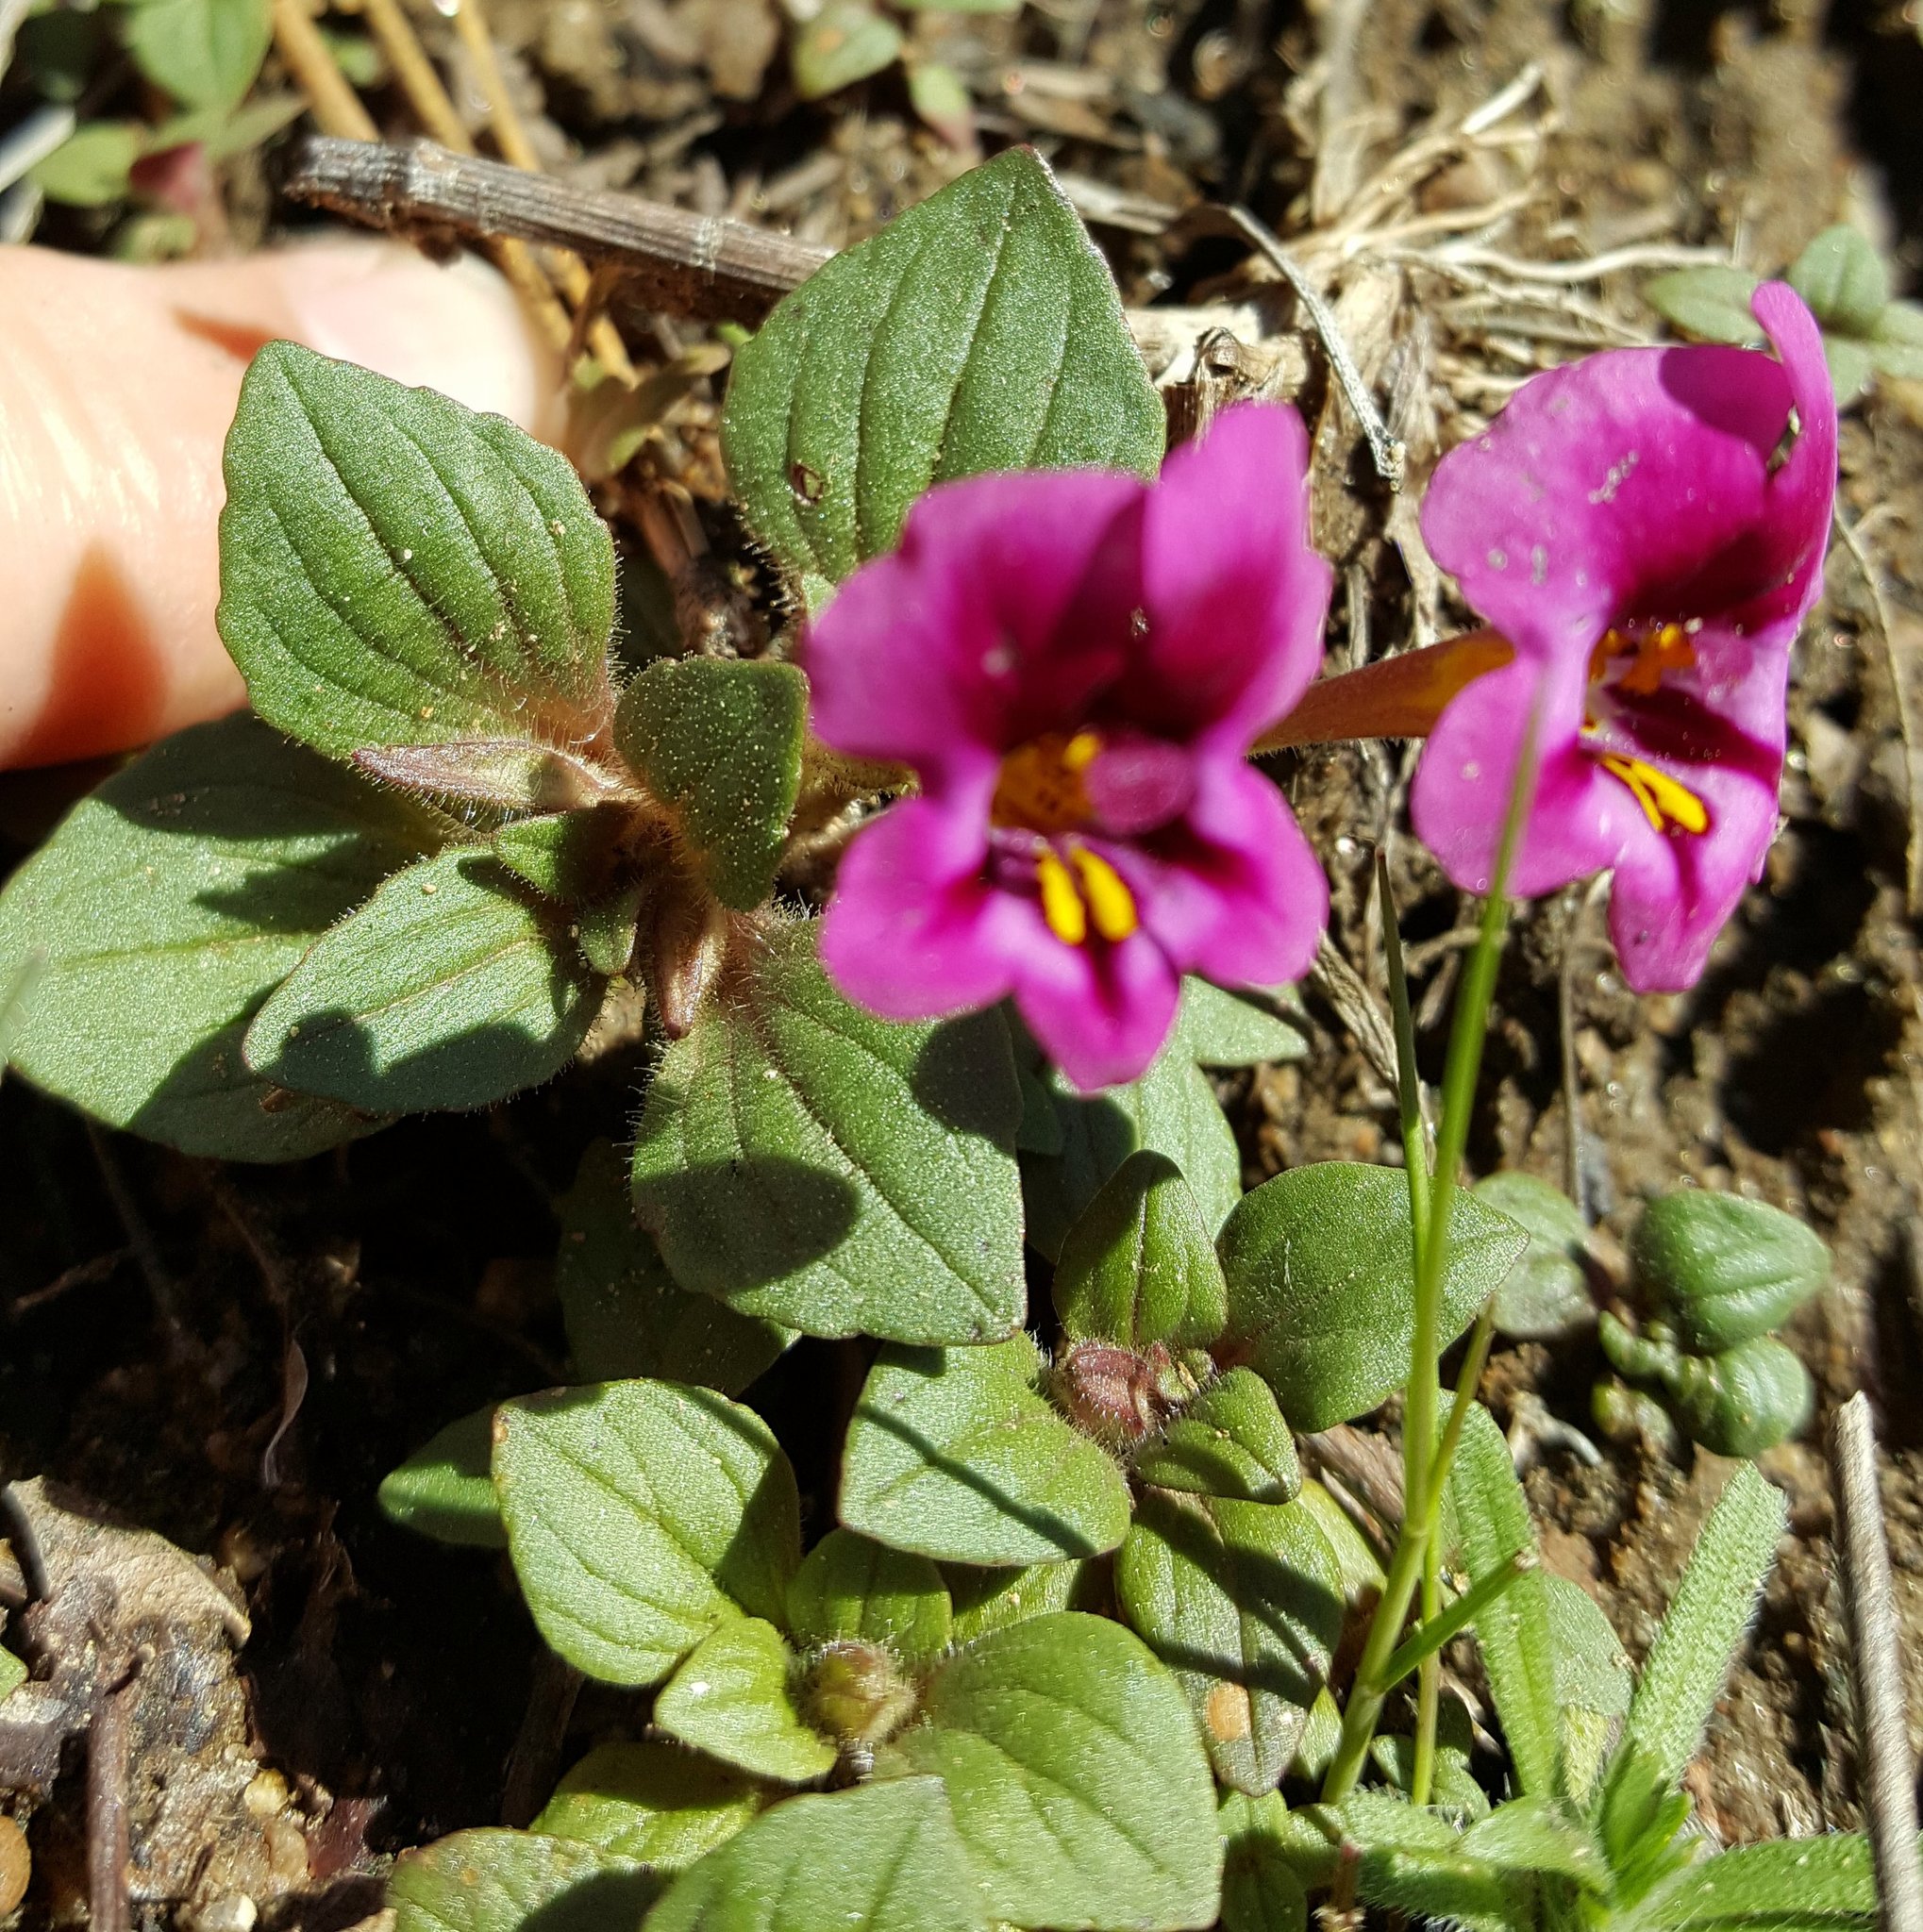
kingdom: Plantae
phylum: Tracheophyta
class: Magnoliopsida
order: Lamiales
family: Phrymaceae
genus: Diplacus
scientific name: Diplacus kelloggii
